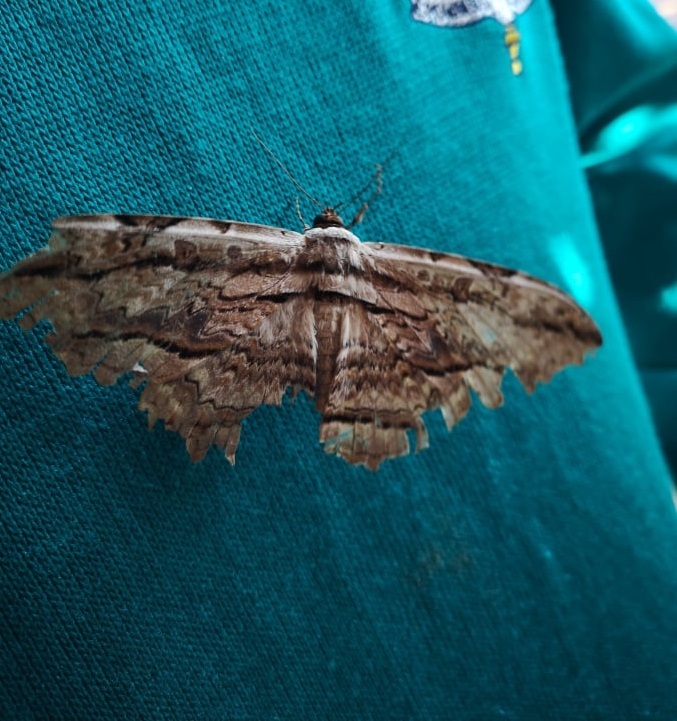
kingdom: Animalia
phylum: Arthropoda
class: Insecta
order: Lepidoptera
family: Erebidae
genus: Thysania
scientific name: Thysania zenobia
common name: Owl moth
